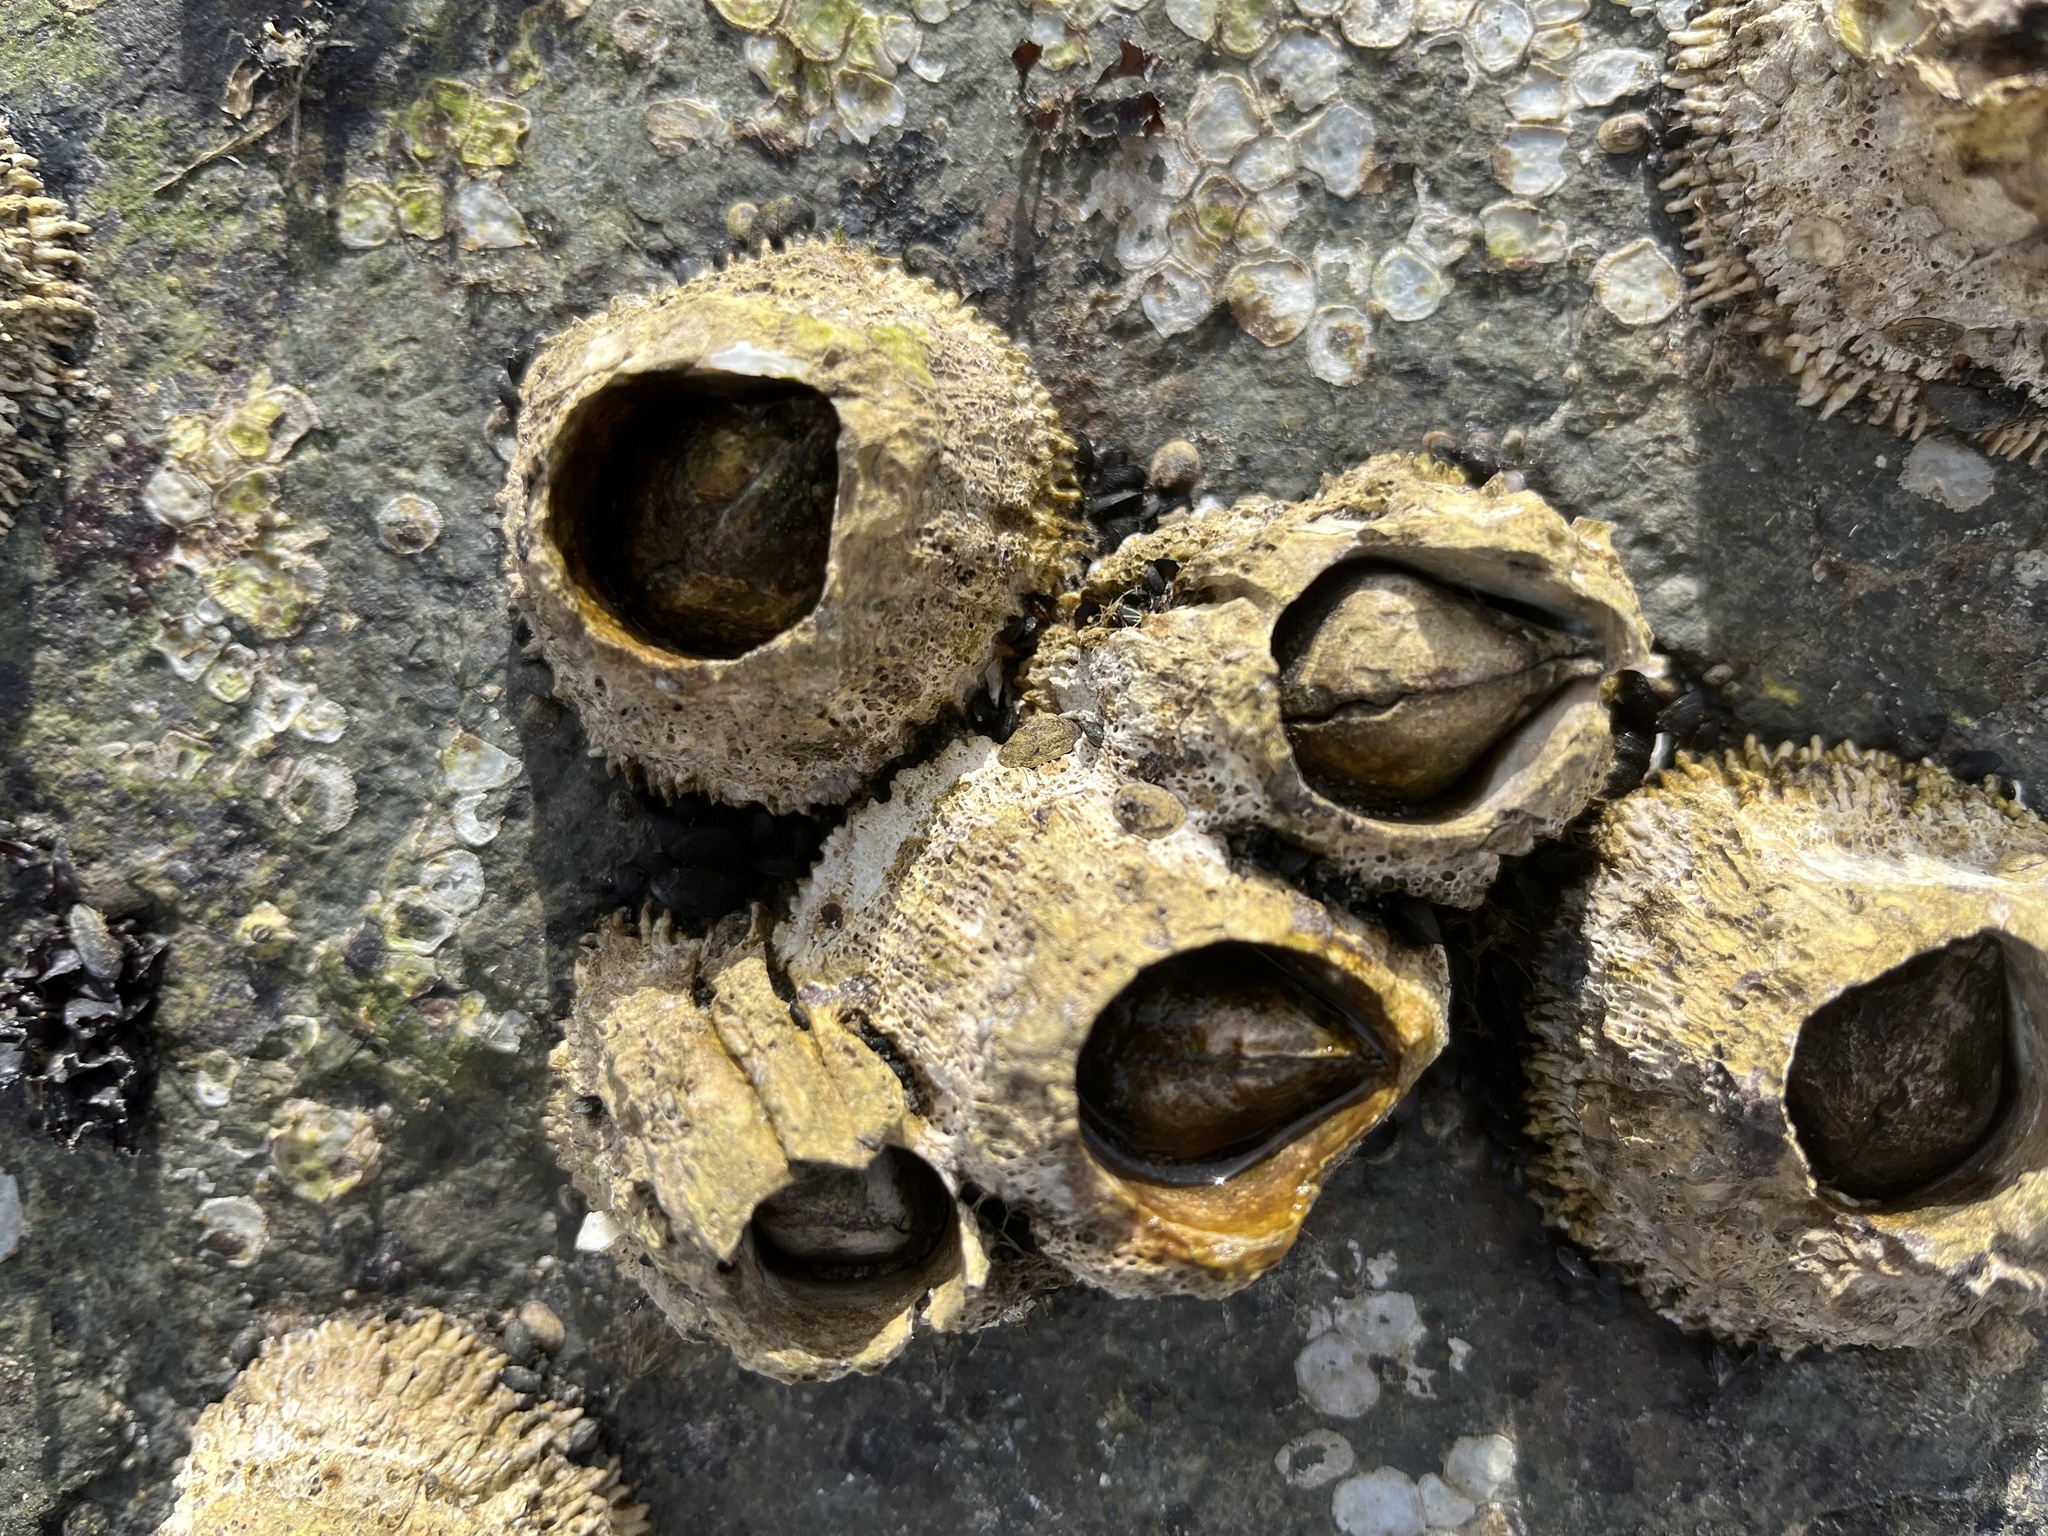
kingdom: Animalia
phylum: Arthropoda
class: Maxillopoda
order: Sessilia
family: Archaeobalanidae
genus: Semibalanus
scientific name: Semibalanus cariosus
